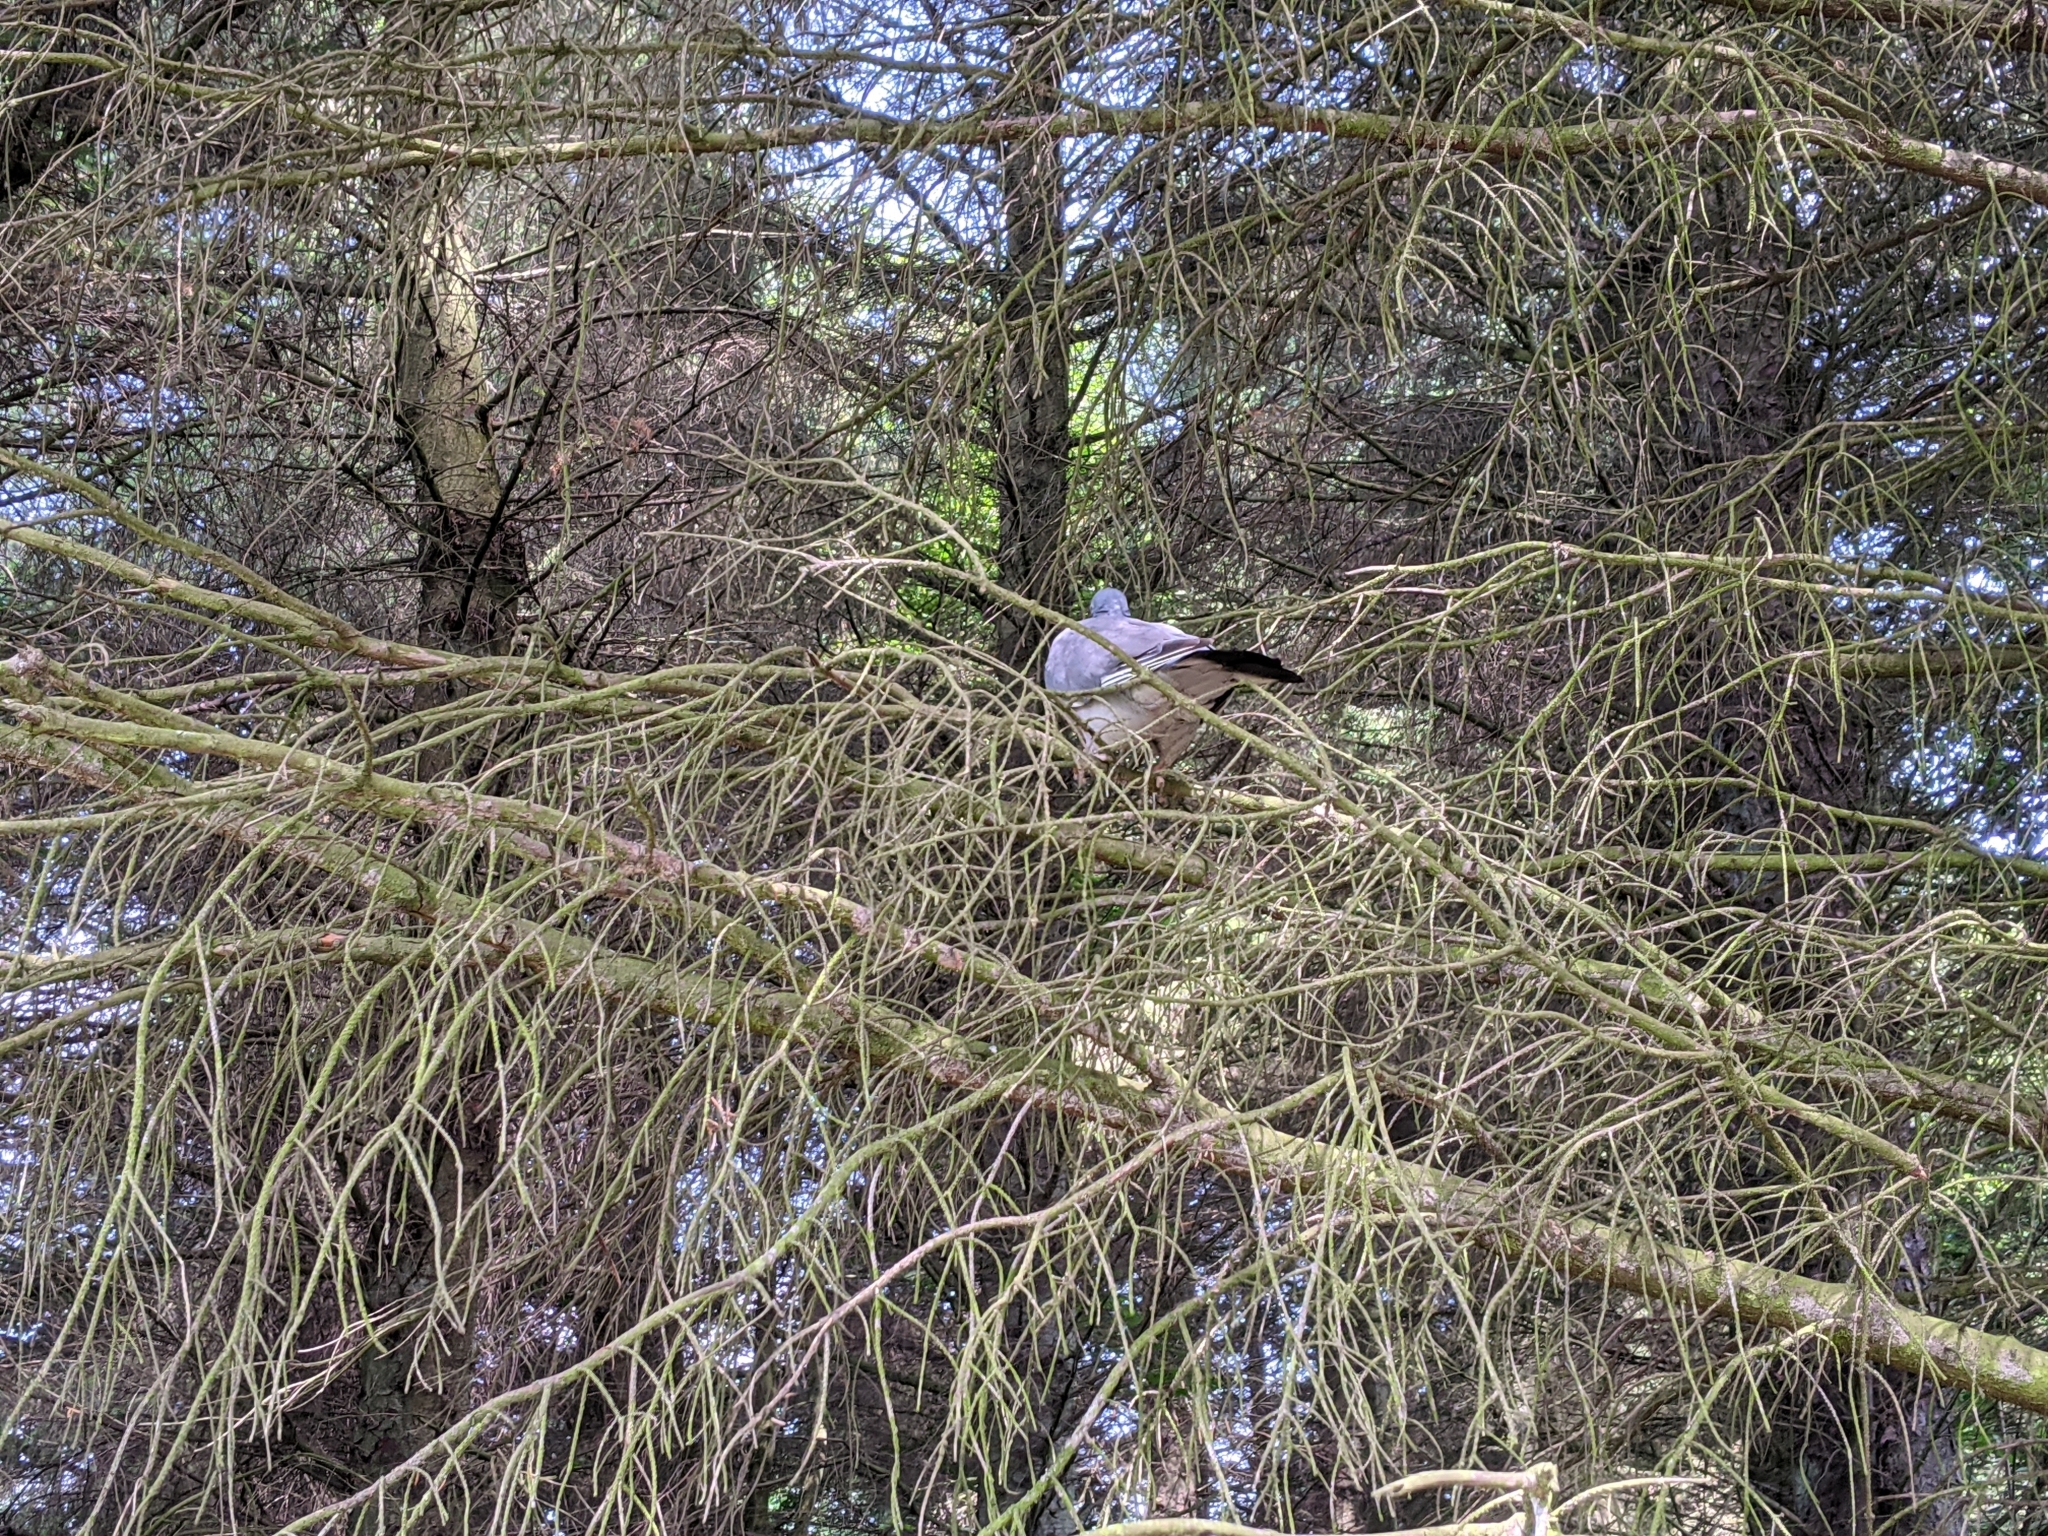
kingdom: Animalia
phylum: Chordata
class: Aves
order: Columbiformes
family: Columbidae
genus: Columba
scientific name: Columba palumbus
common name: Common wood pigeon
